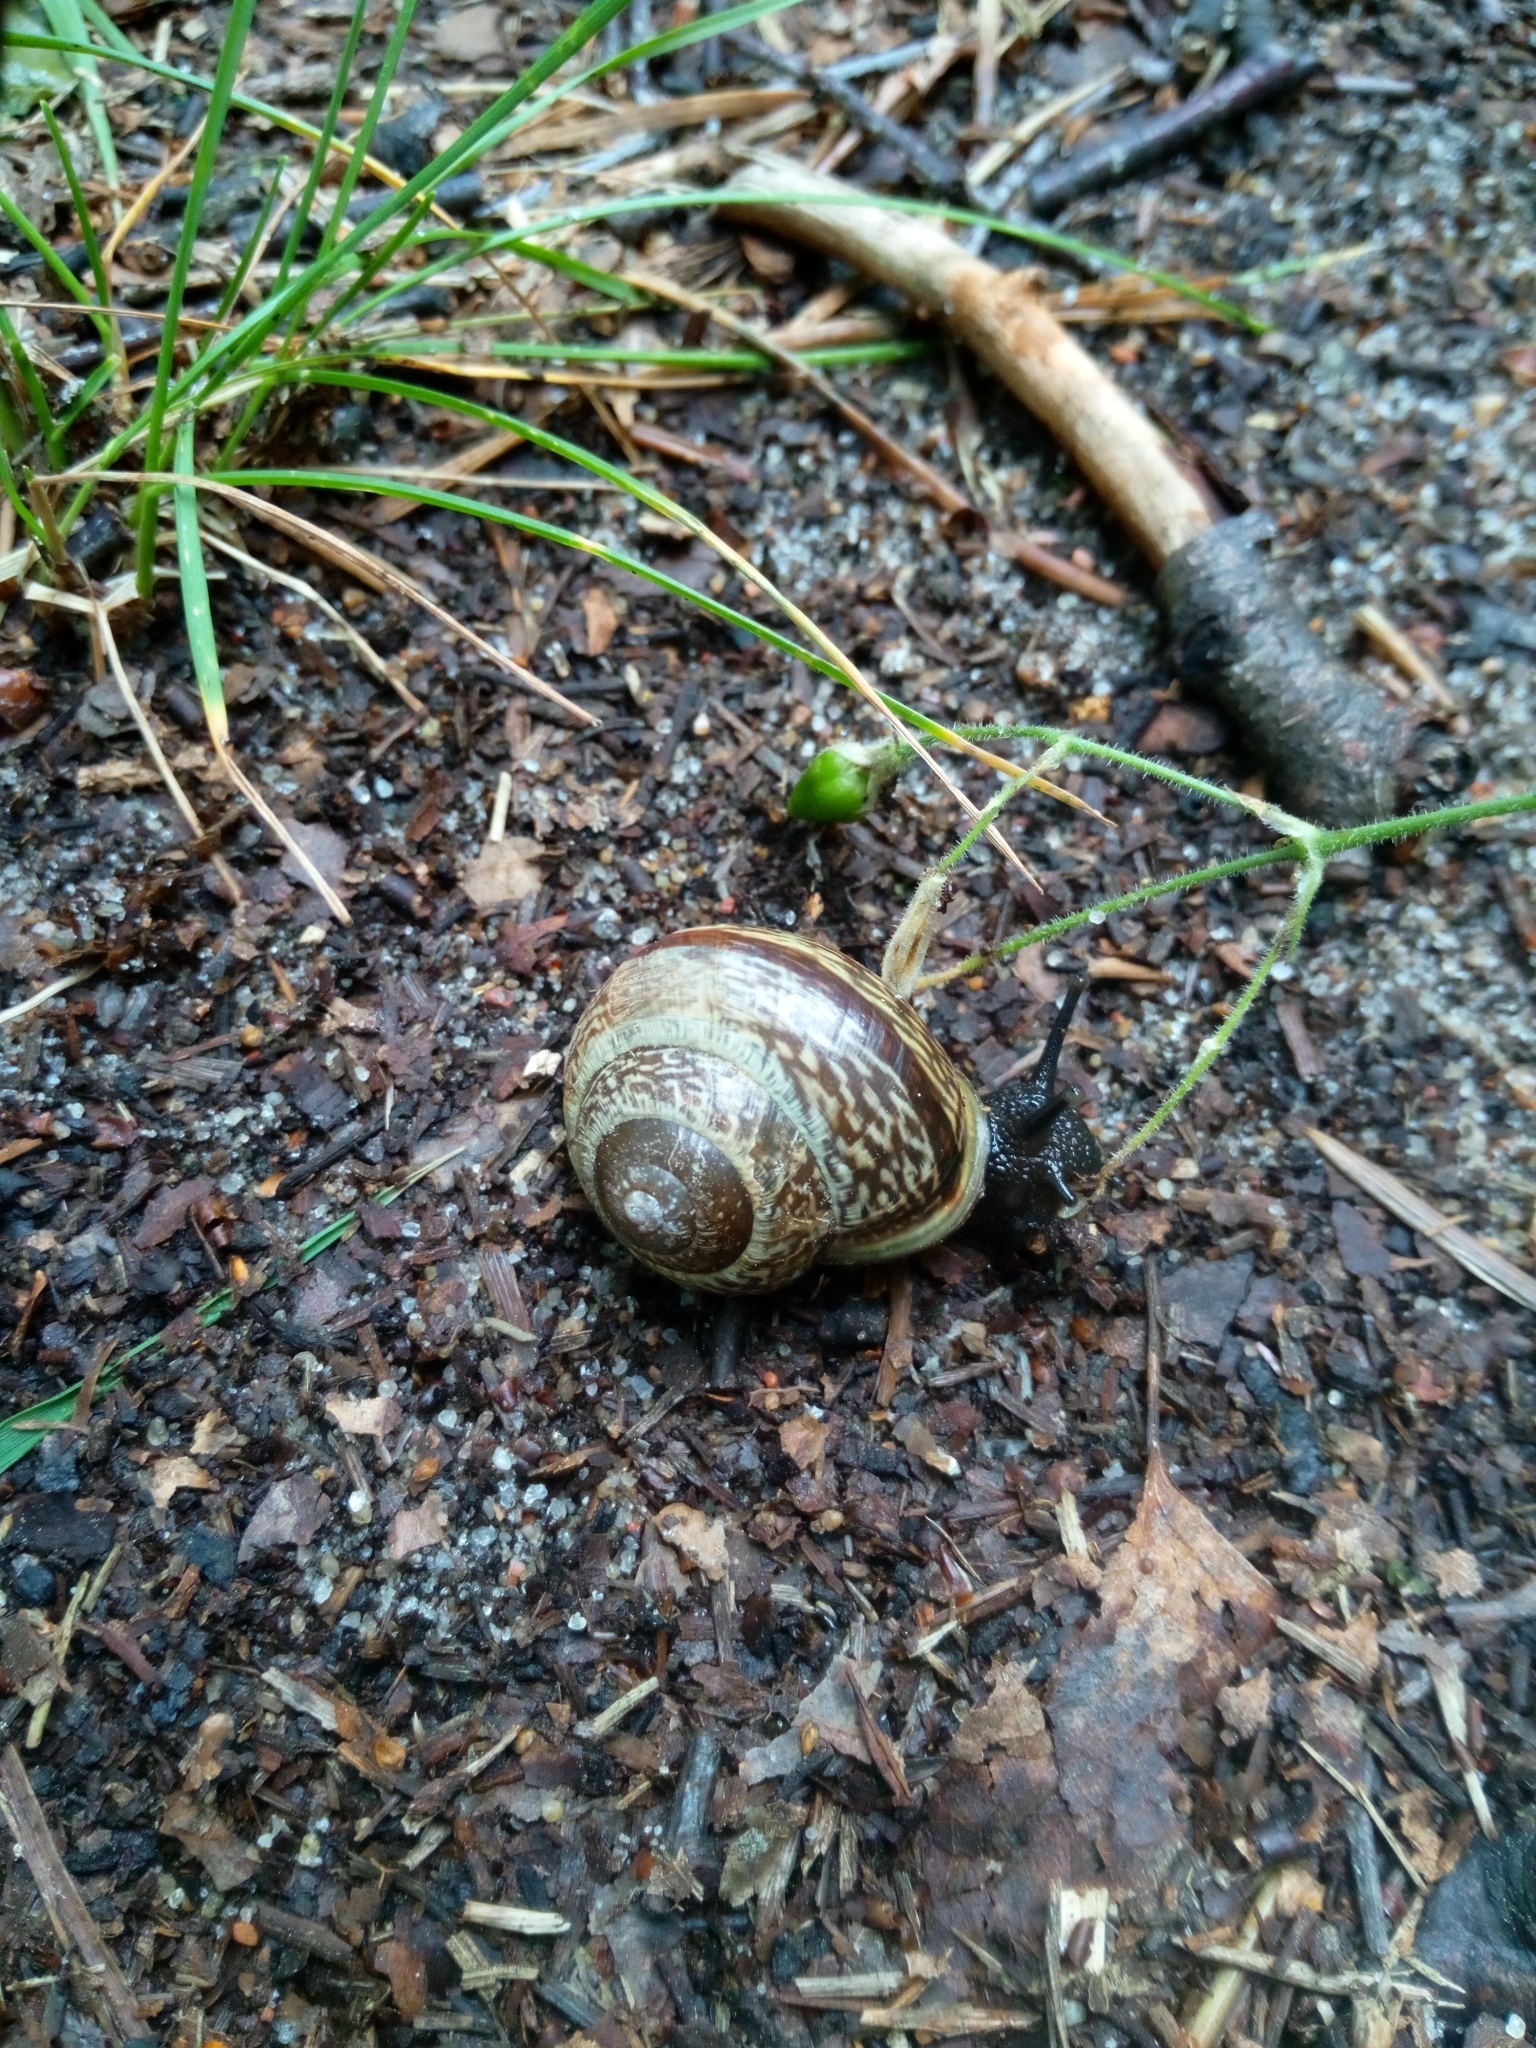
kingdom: Animalia
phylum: Mollusca
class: Gastropoda
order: Stylommatophora
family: Helicidae
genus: Arianta
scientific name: Arianta arbustorum
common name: Copse snail
